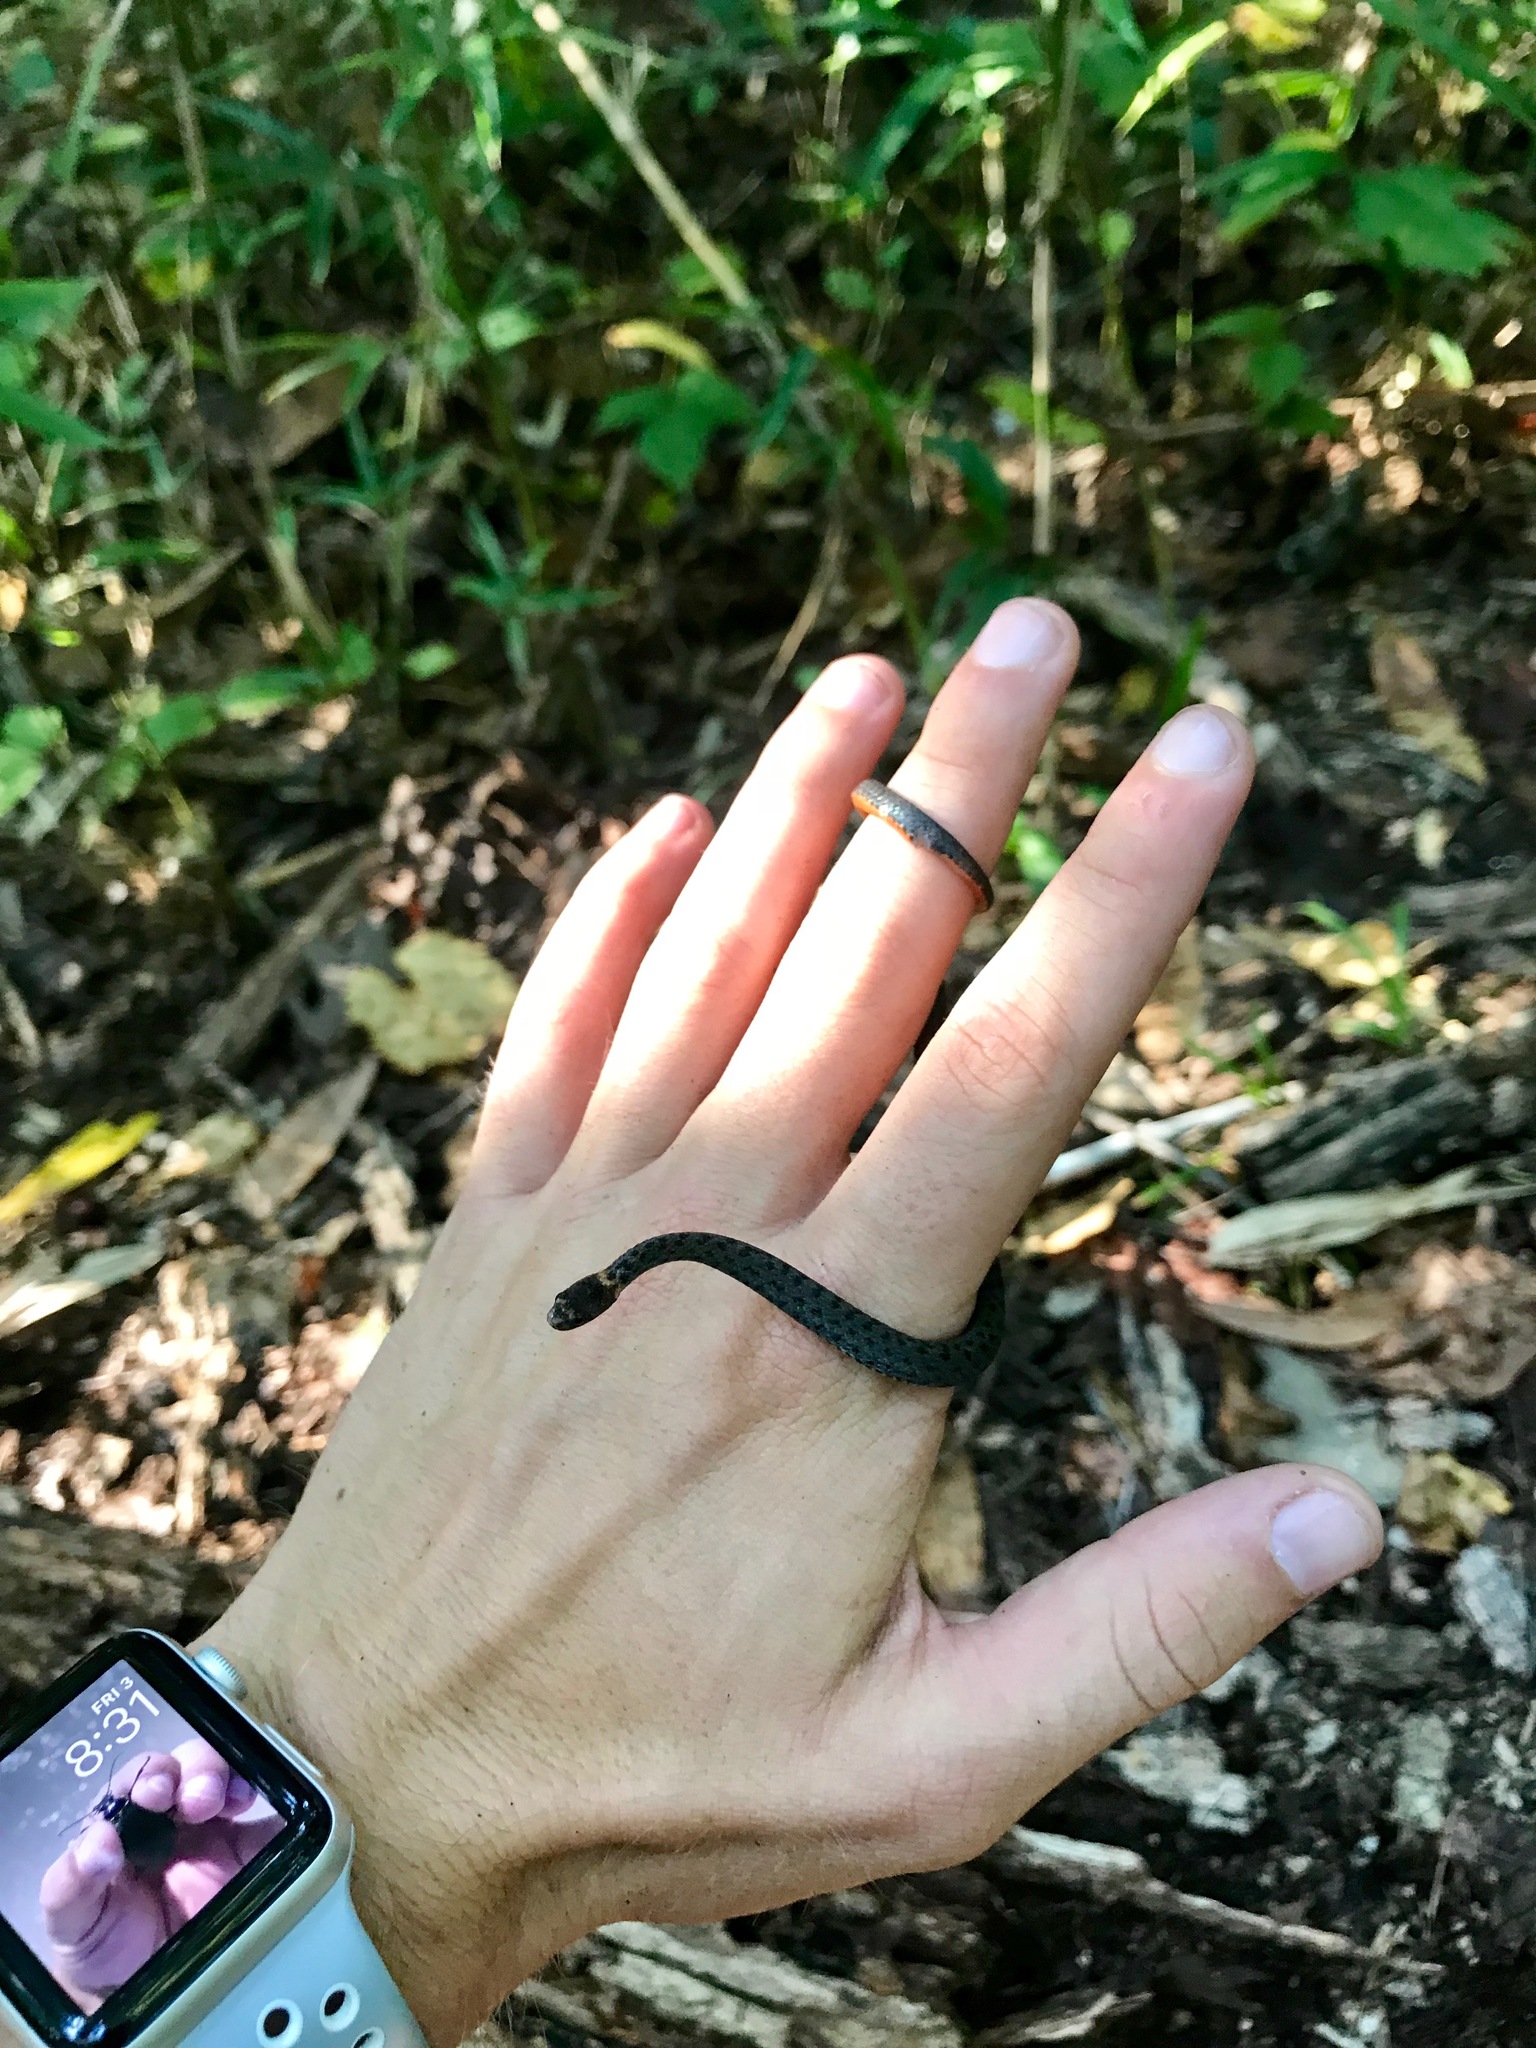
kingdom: Animalia
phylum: Chordata
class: Squamata
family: Colubridae
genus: Storeria
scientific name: Storeria occipitomaculata
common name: Redbelly snake
